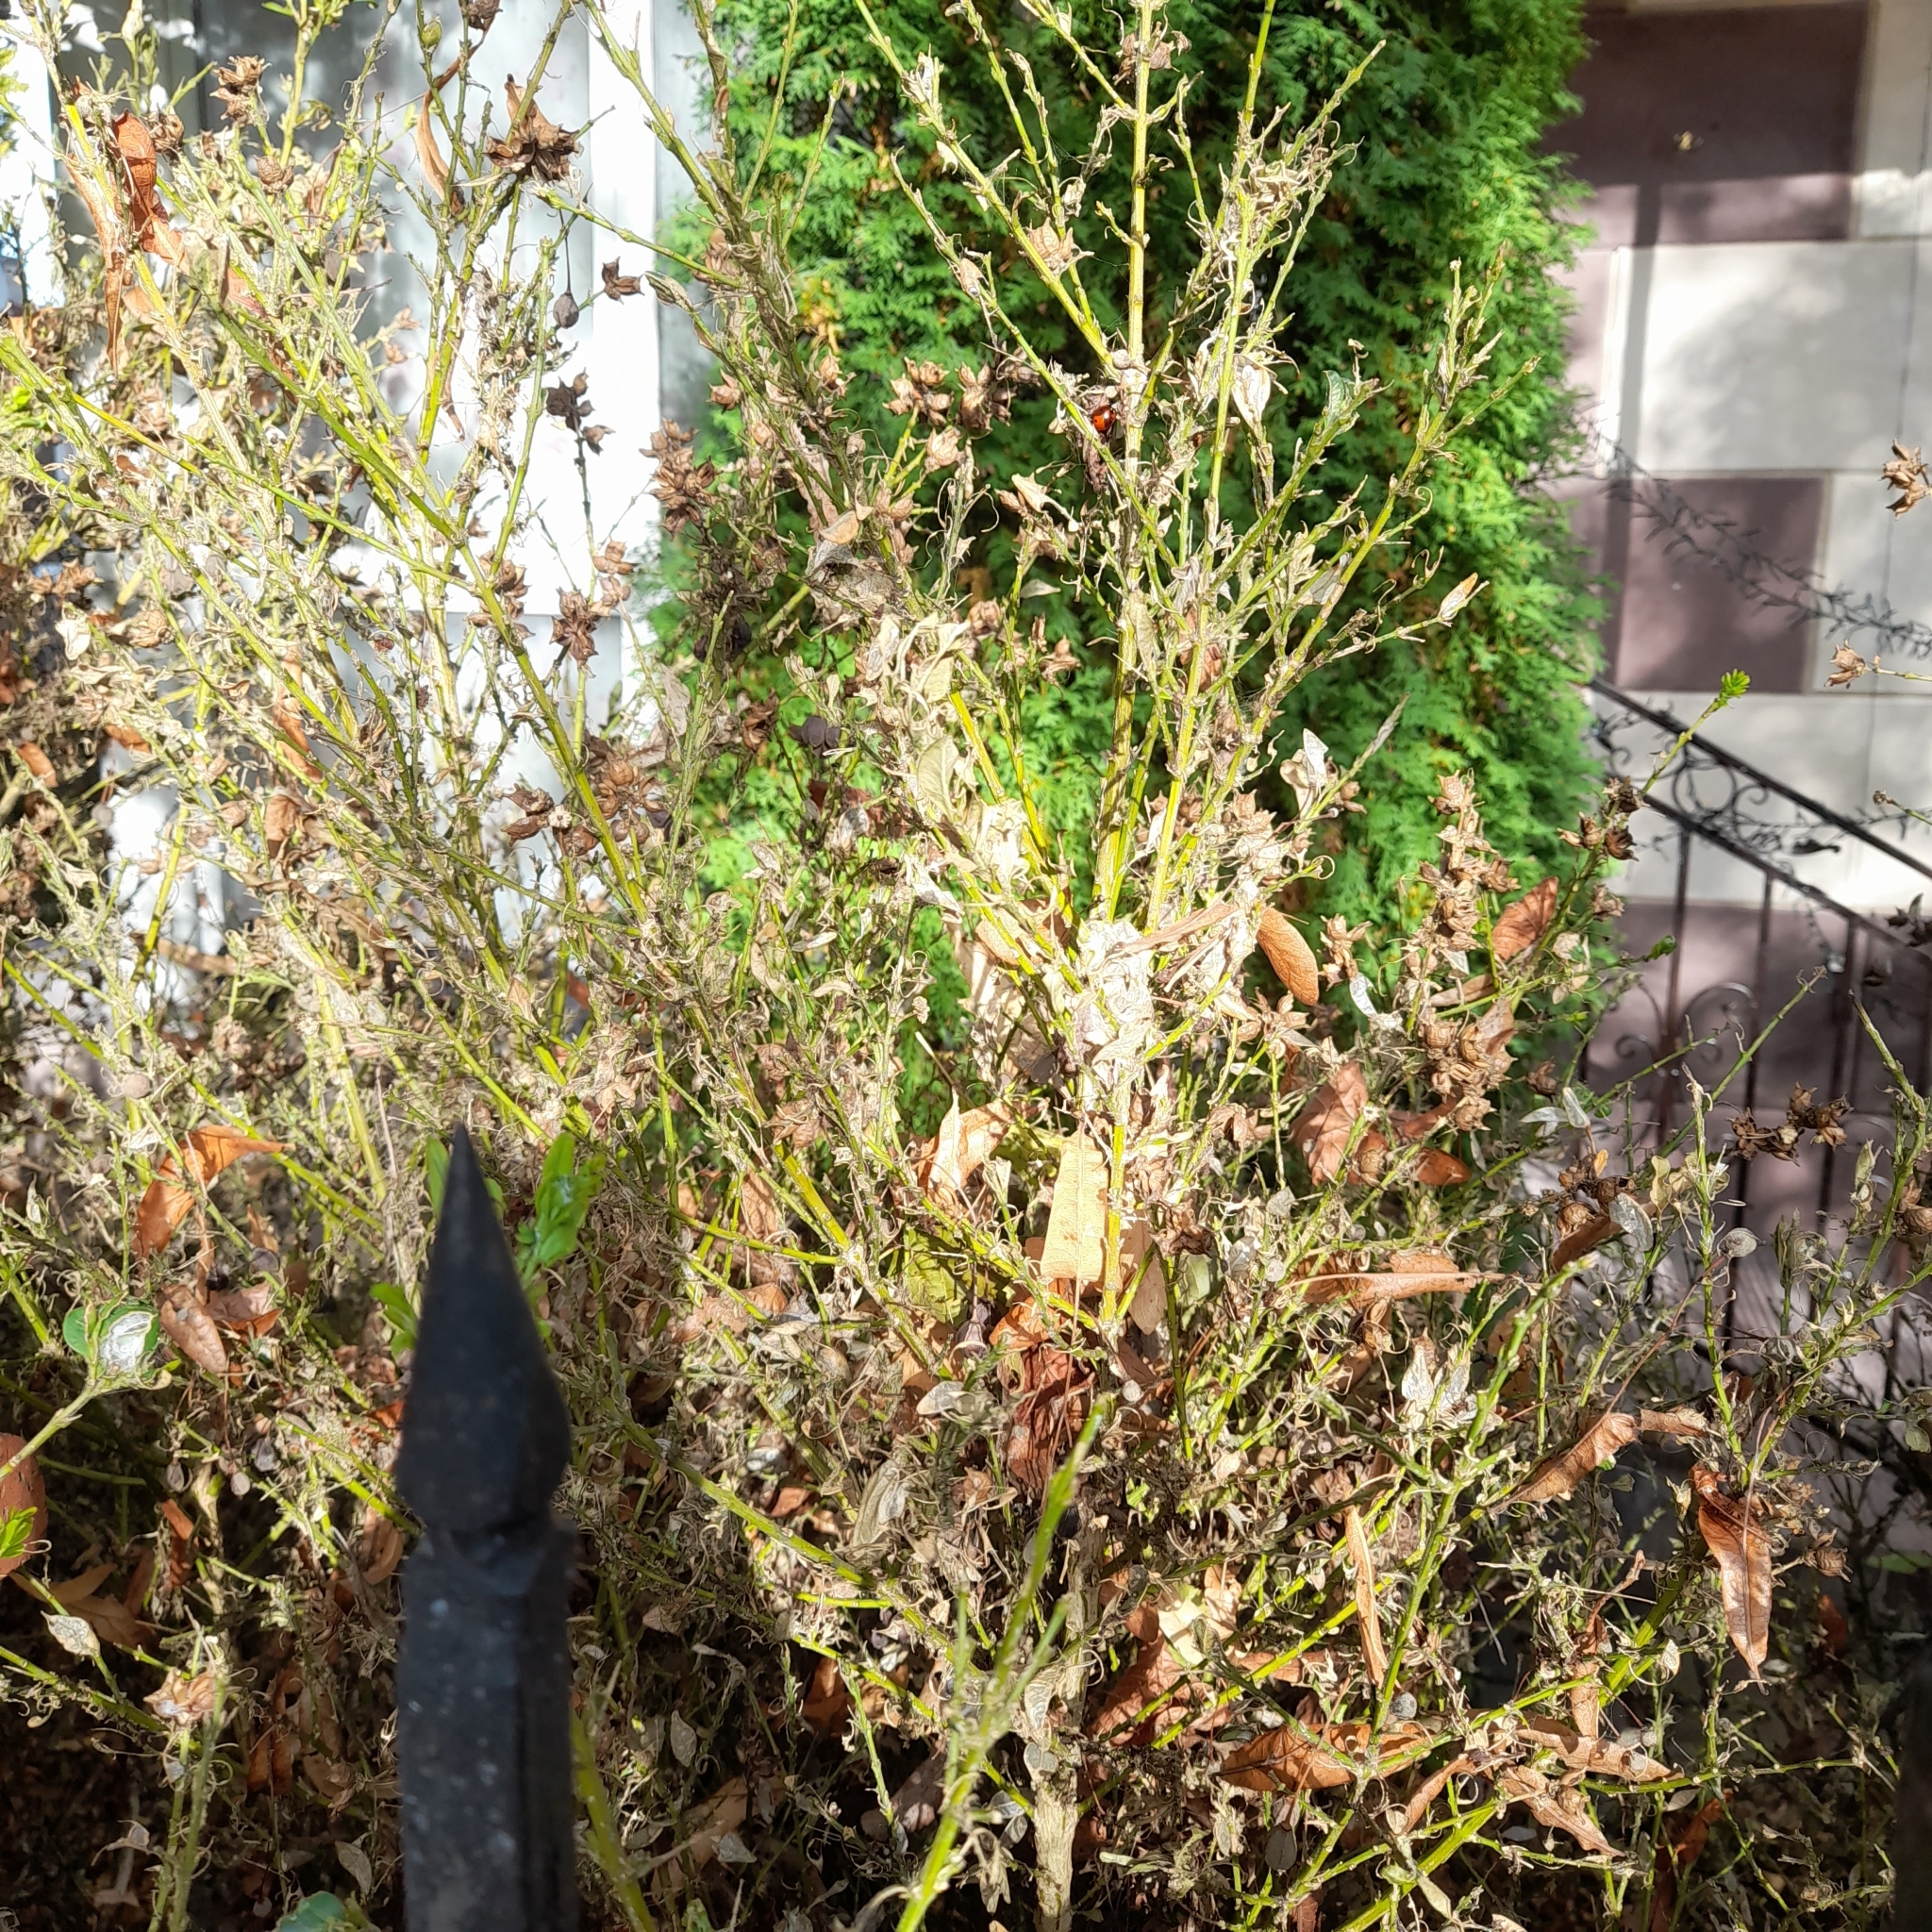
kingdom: Animalia
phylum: Arthropoda
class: Insecta
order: Lepidoptera
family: Crambidae
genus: Cydalima
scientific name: Cydalima perspectalis
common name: Box tree moth
